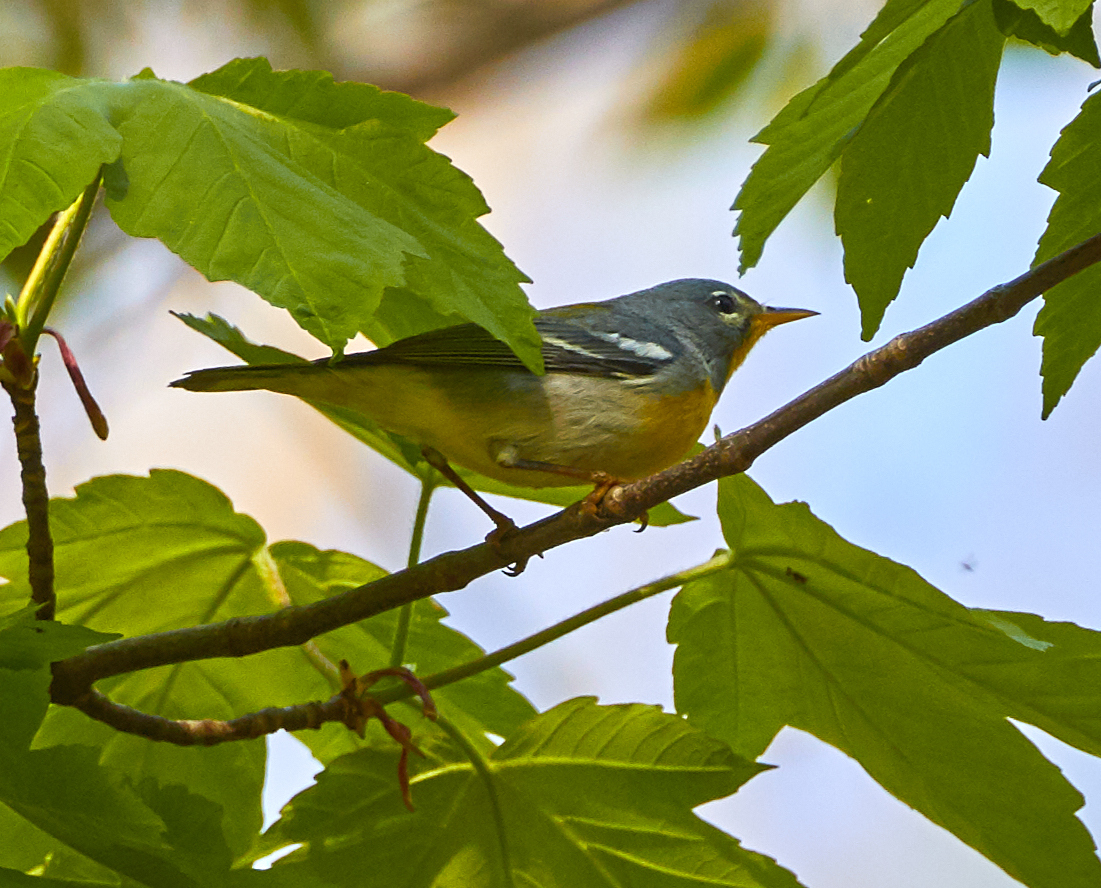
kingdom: Animalia
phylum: Chordata
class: Aves
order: Passeriformes
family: Parulidae
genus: Setophaga
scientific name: Setophaga americana
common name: Northern parula
